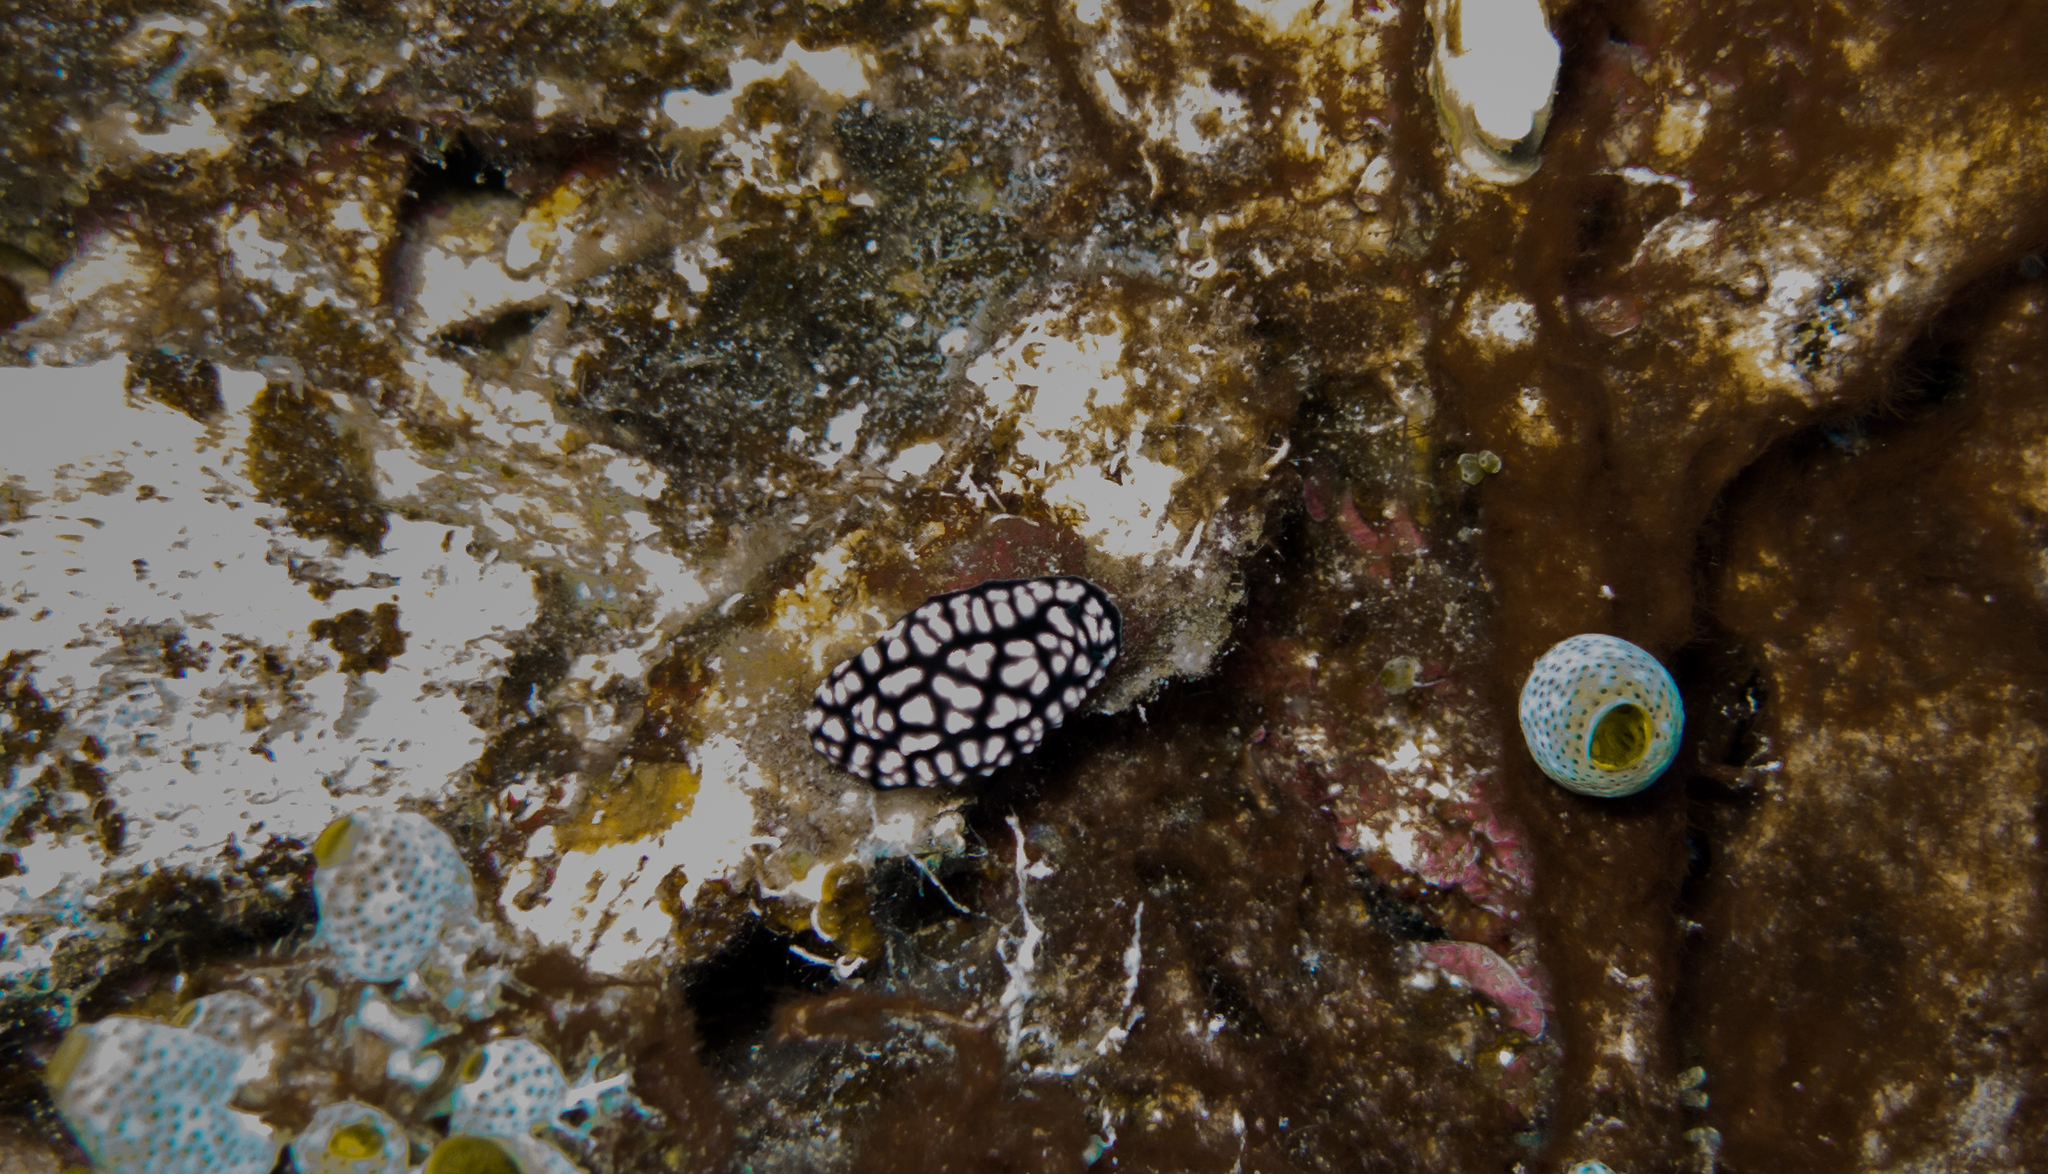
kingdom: Animalia
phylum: Mollusca
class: Gastropoda
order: Nudibranchia
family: Phyllidiidae
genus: Phyllidiella
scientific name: Phyllidiella pustulosa
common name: Pustular phyllidia
